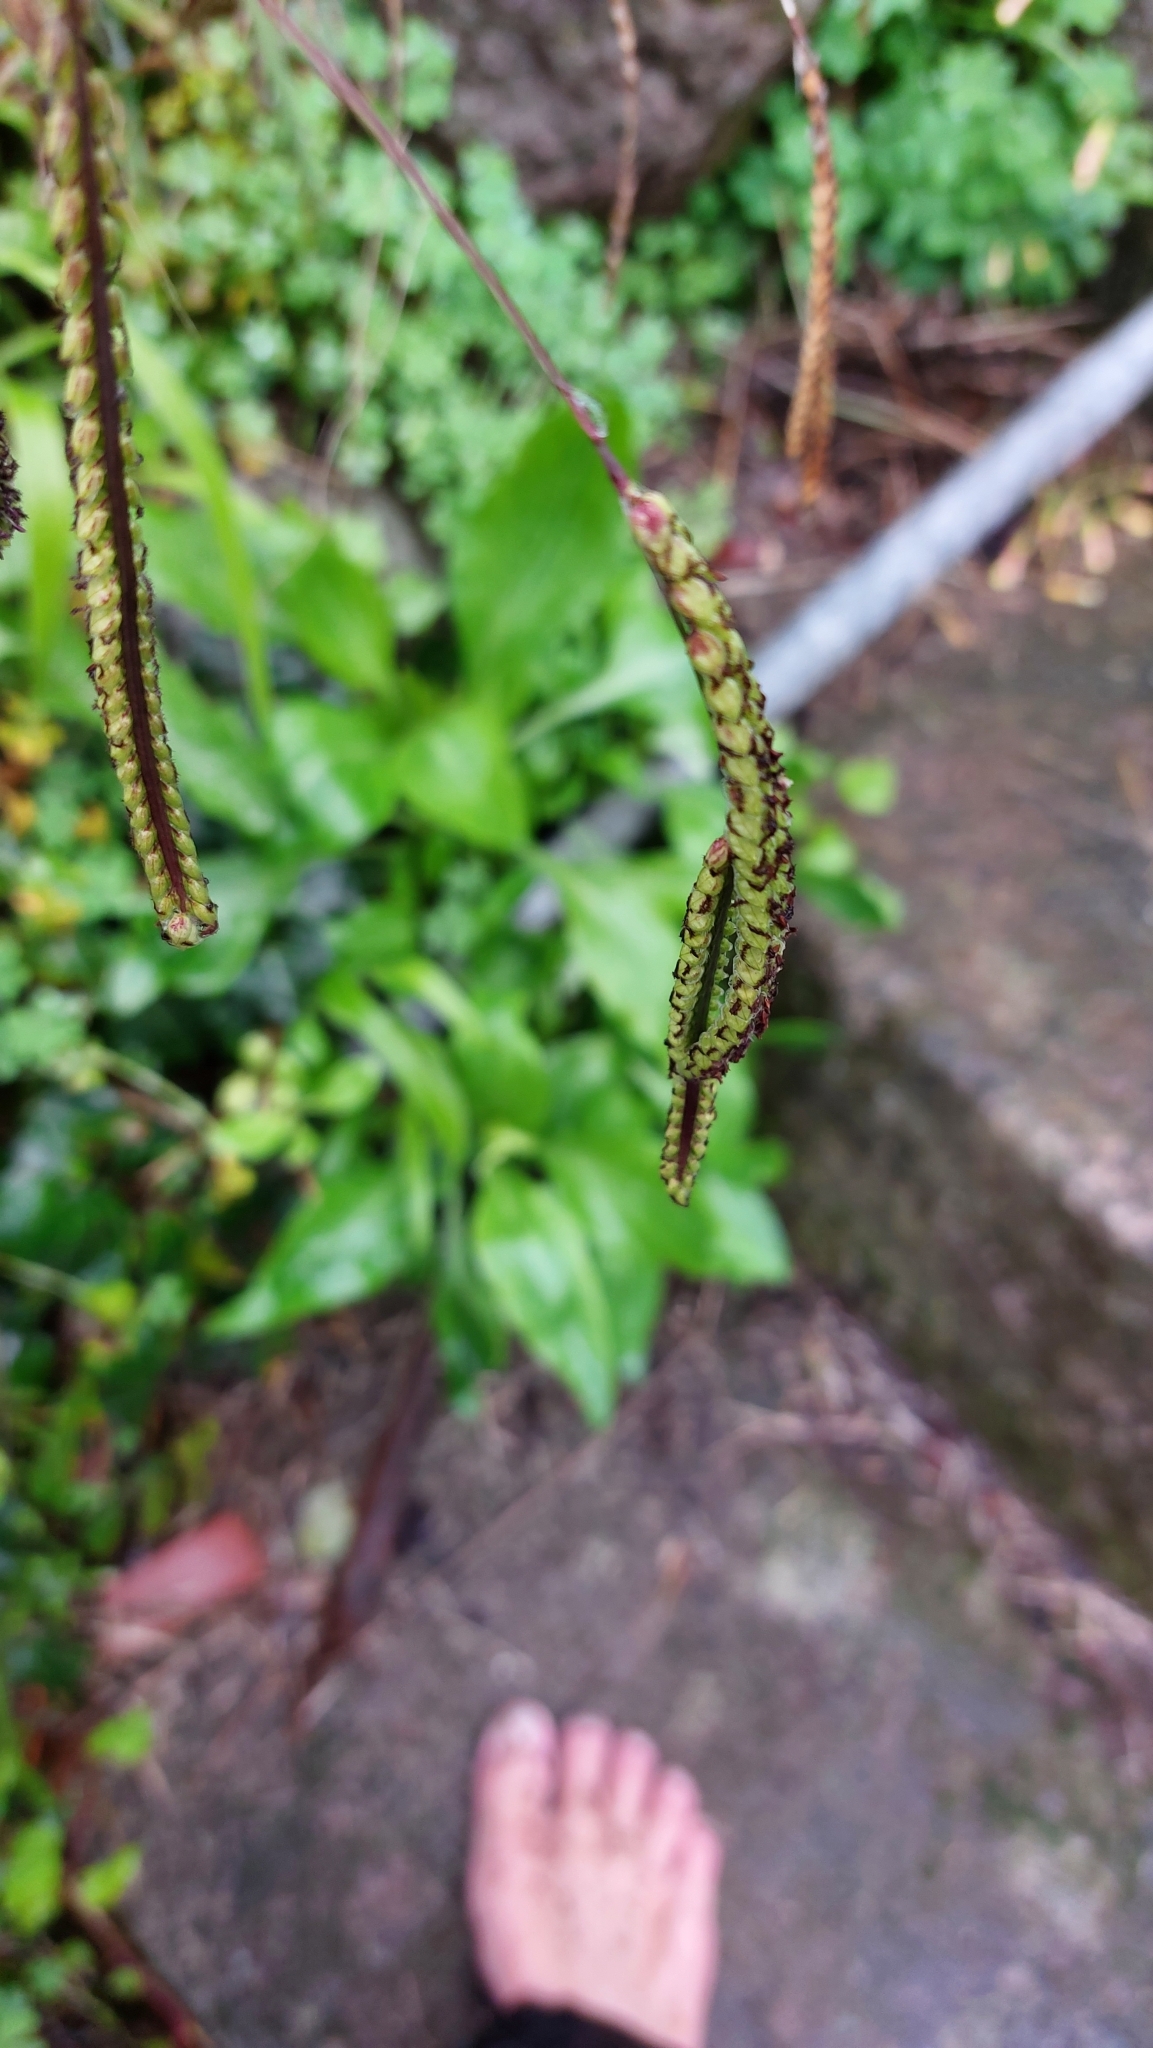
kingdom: Plantae
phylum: Tracheophyta
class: Liliopsida
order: Poales
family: Poaceae
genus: Paspalum
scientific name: Paspalum dilatatum
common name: Dallisgrass
